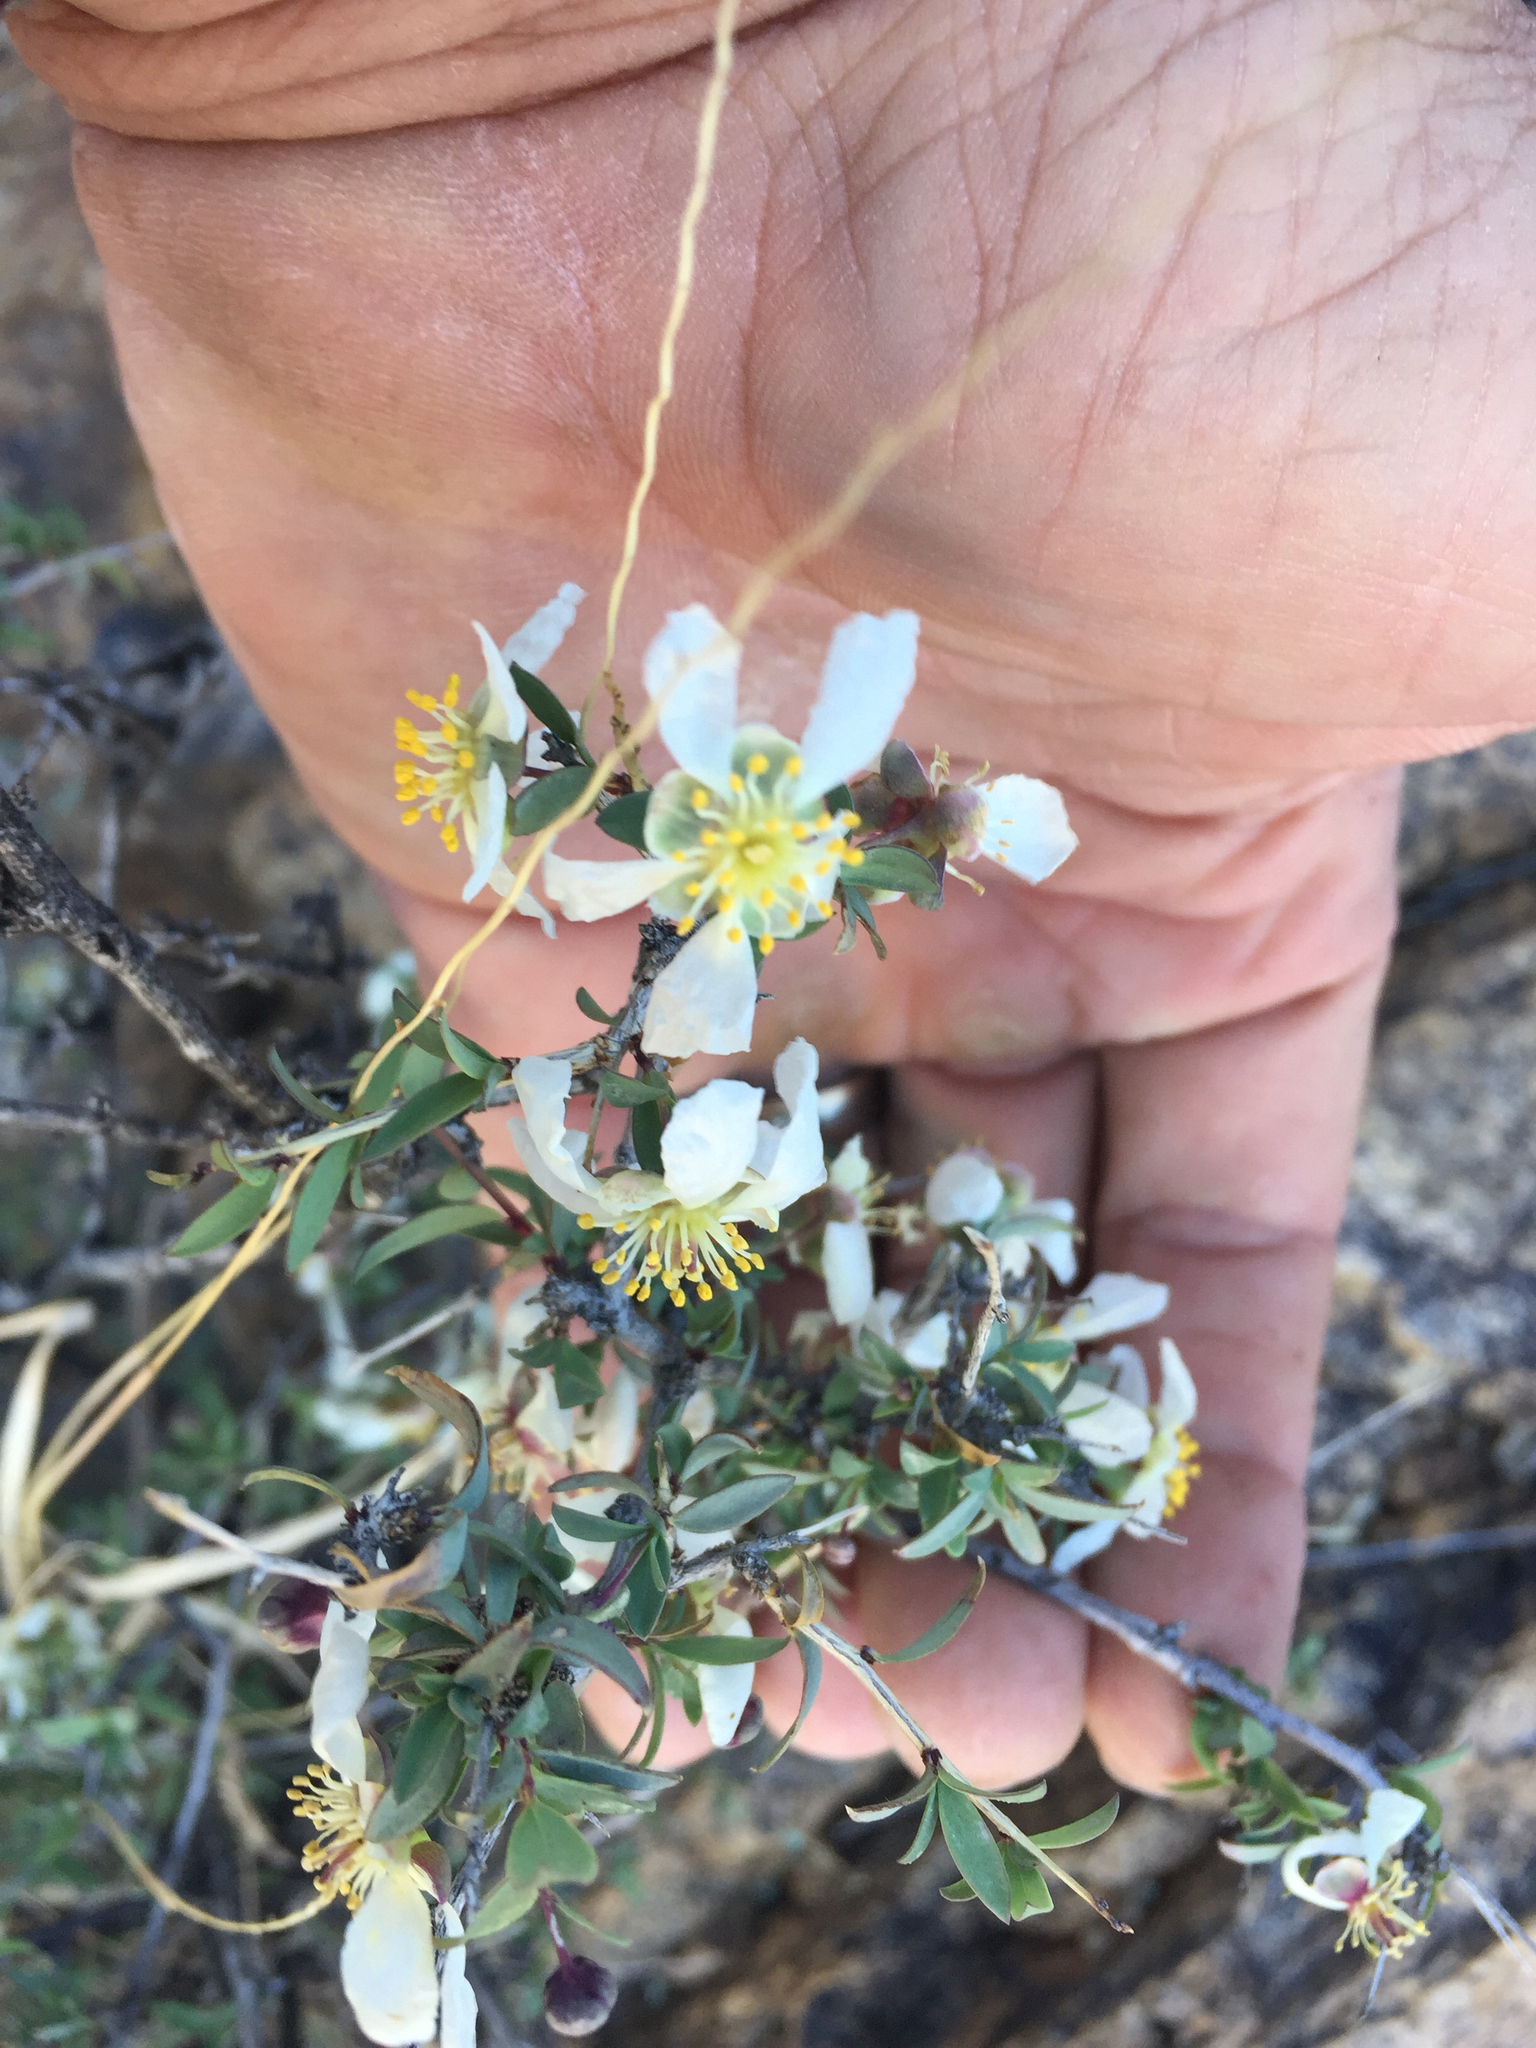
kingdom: Plantae
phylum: Tracheophyta
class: Magnoliopsida
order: Crossosomatales
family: Crossosomataceae
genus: Crossosoma
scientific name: Crossosoma bigelovii
